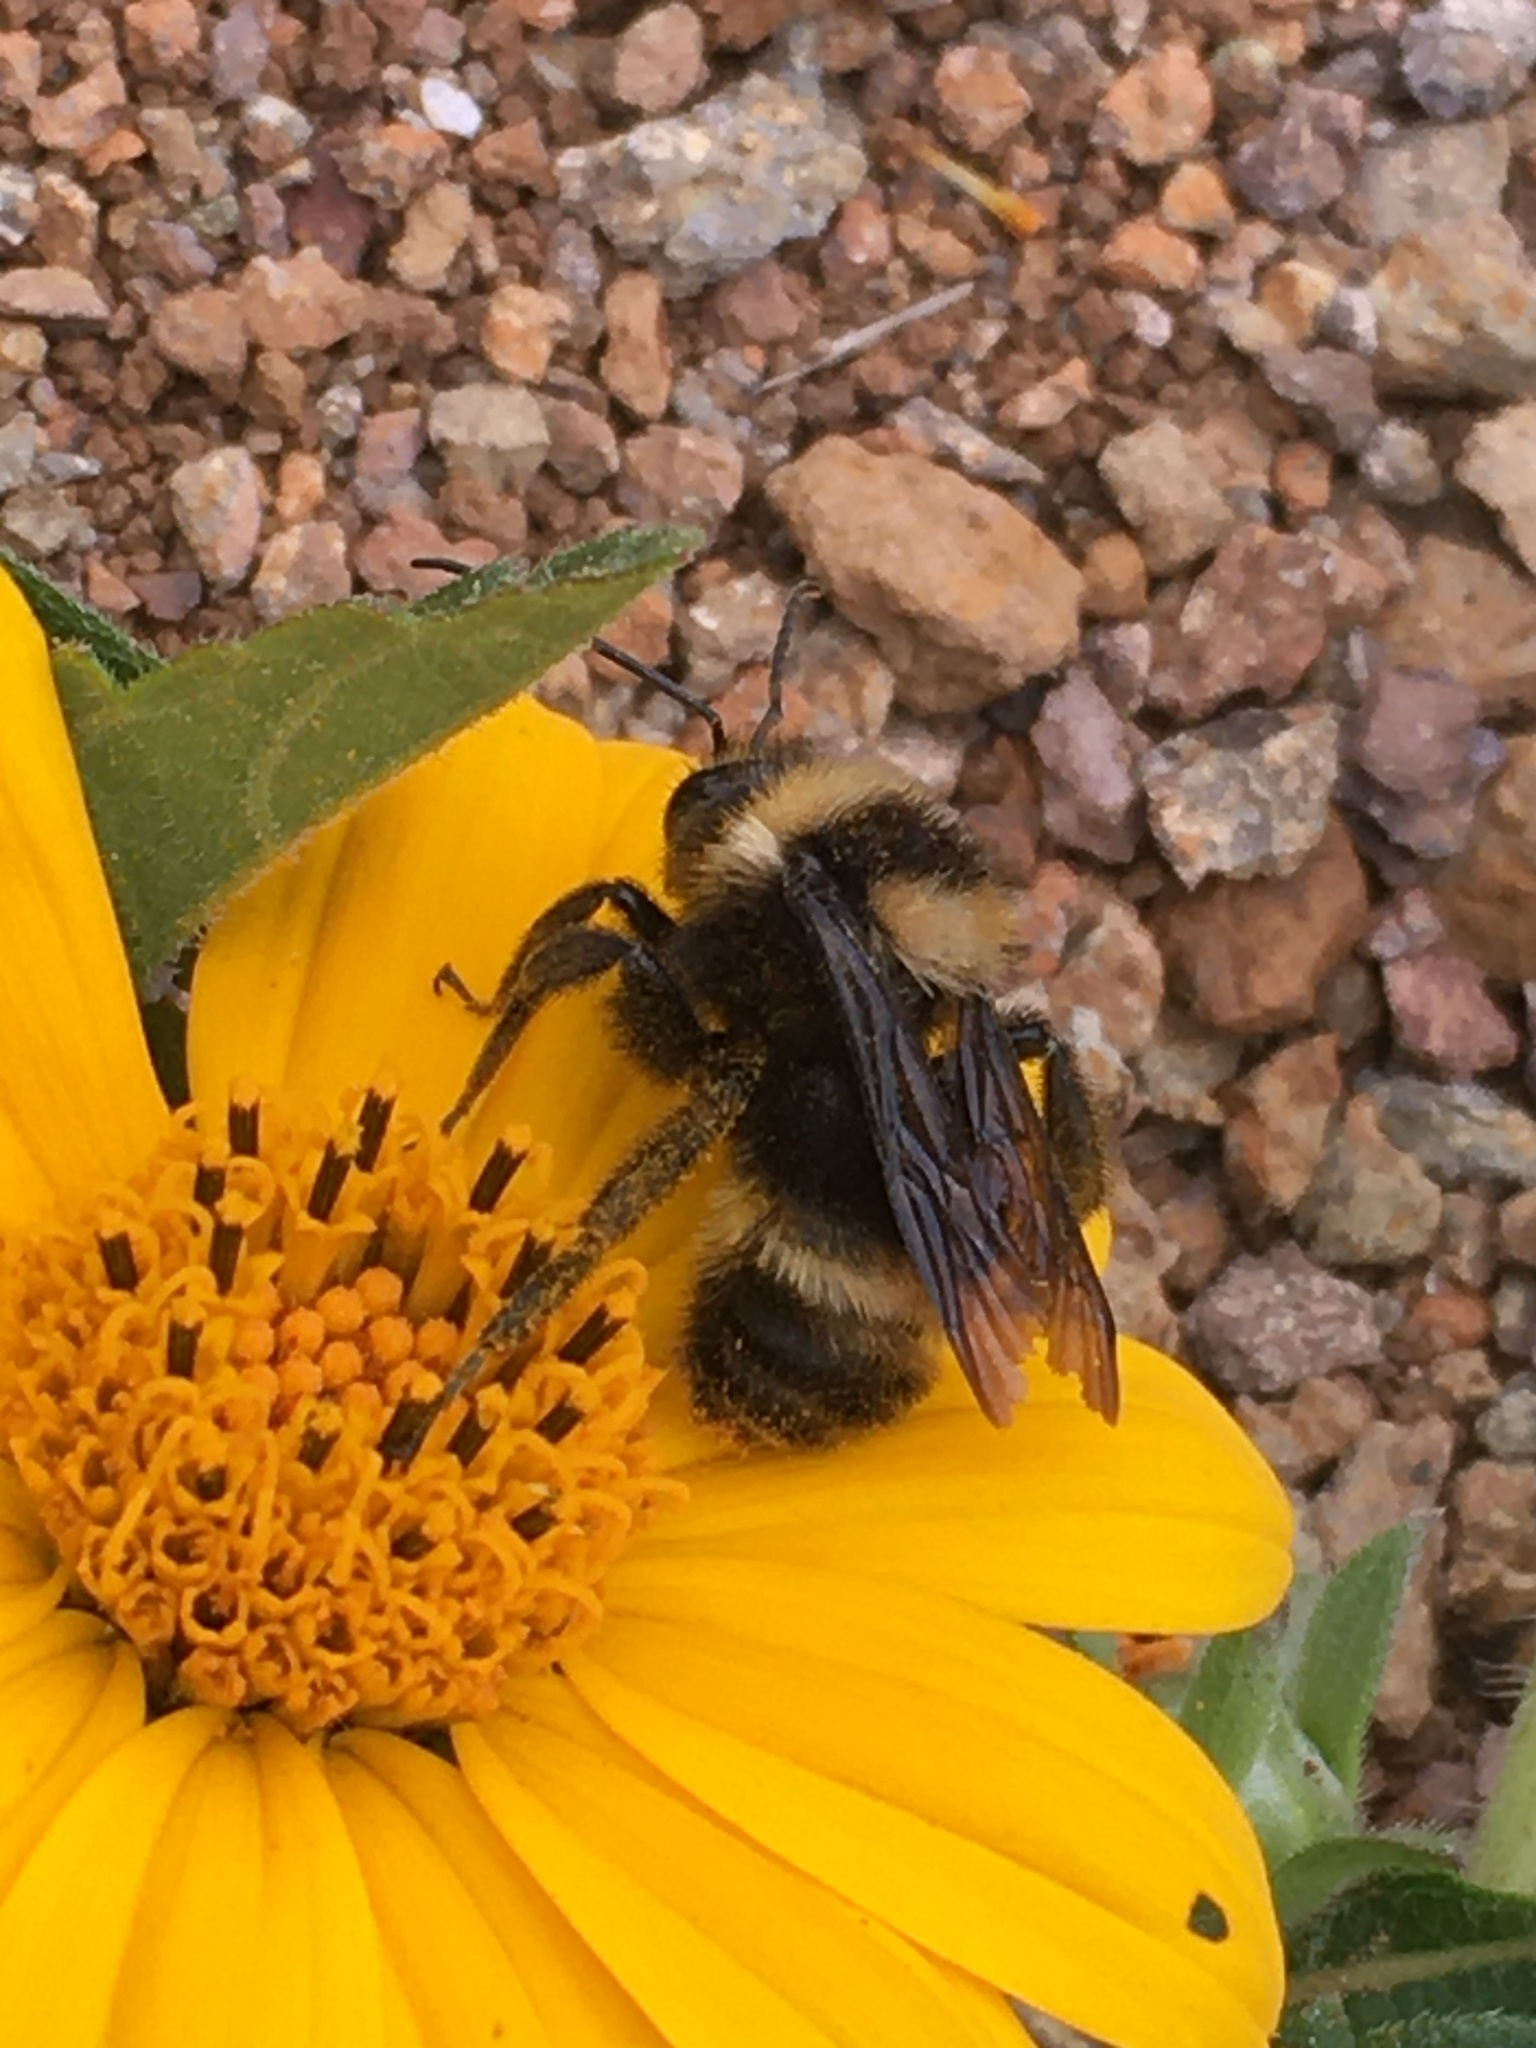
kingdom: Animalia
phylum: Arthropoda
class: Insecta
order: Hymenoptera
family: Apidae
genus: Bombus
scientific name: Bombus pauloensis
